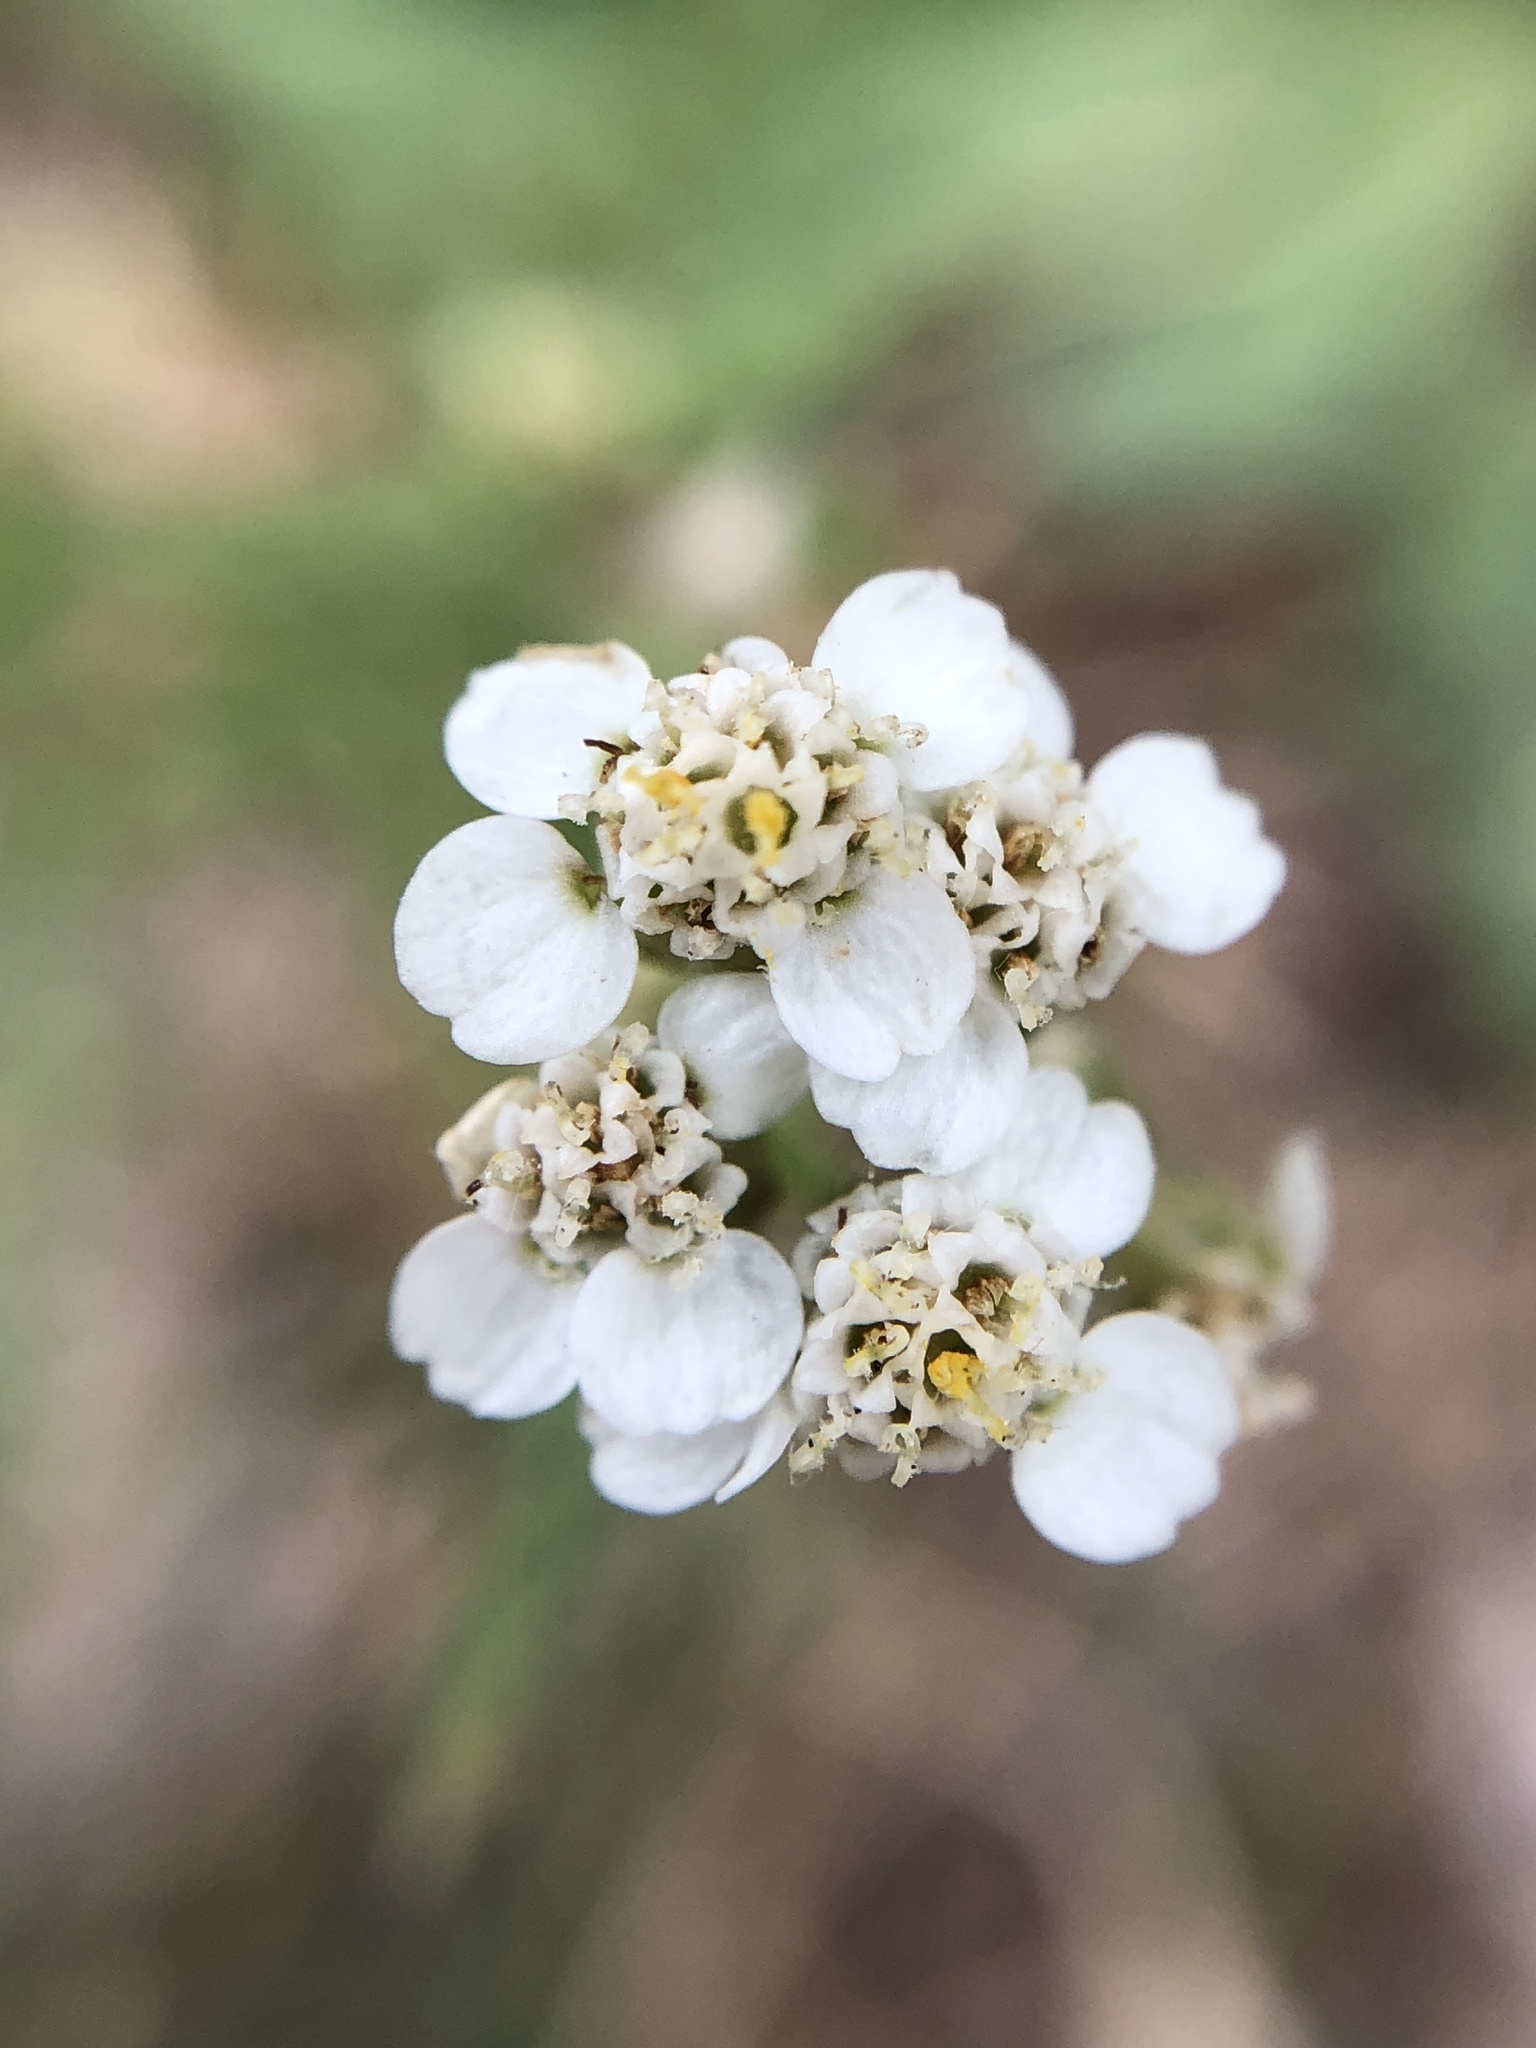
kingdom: Plantae
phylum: Tracheophyta
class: Magnoliopsida
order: Asterales
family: Asteraceae
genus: Achillea
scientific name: Achillea millefolium
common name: Yarrow
